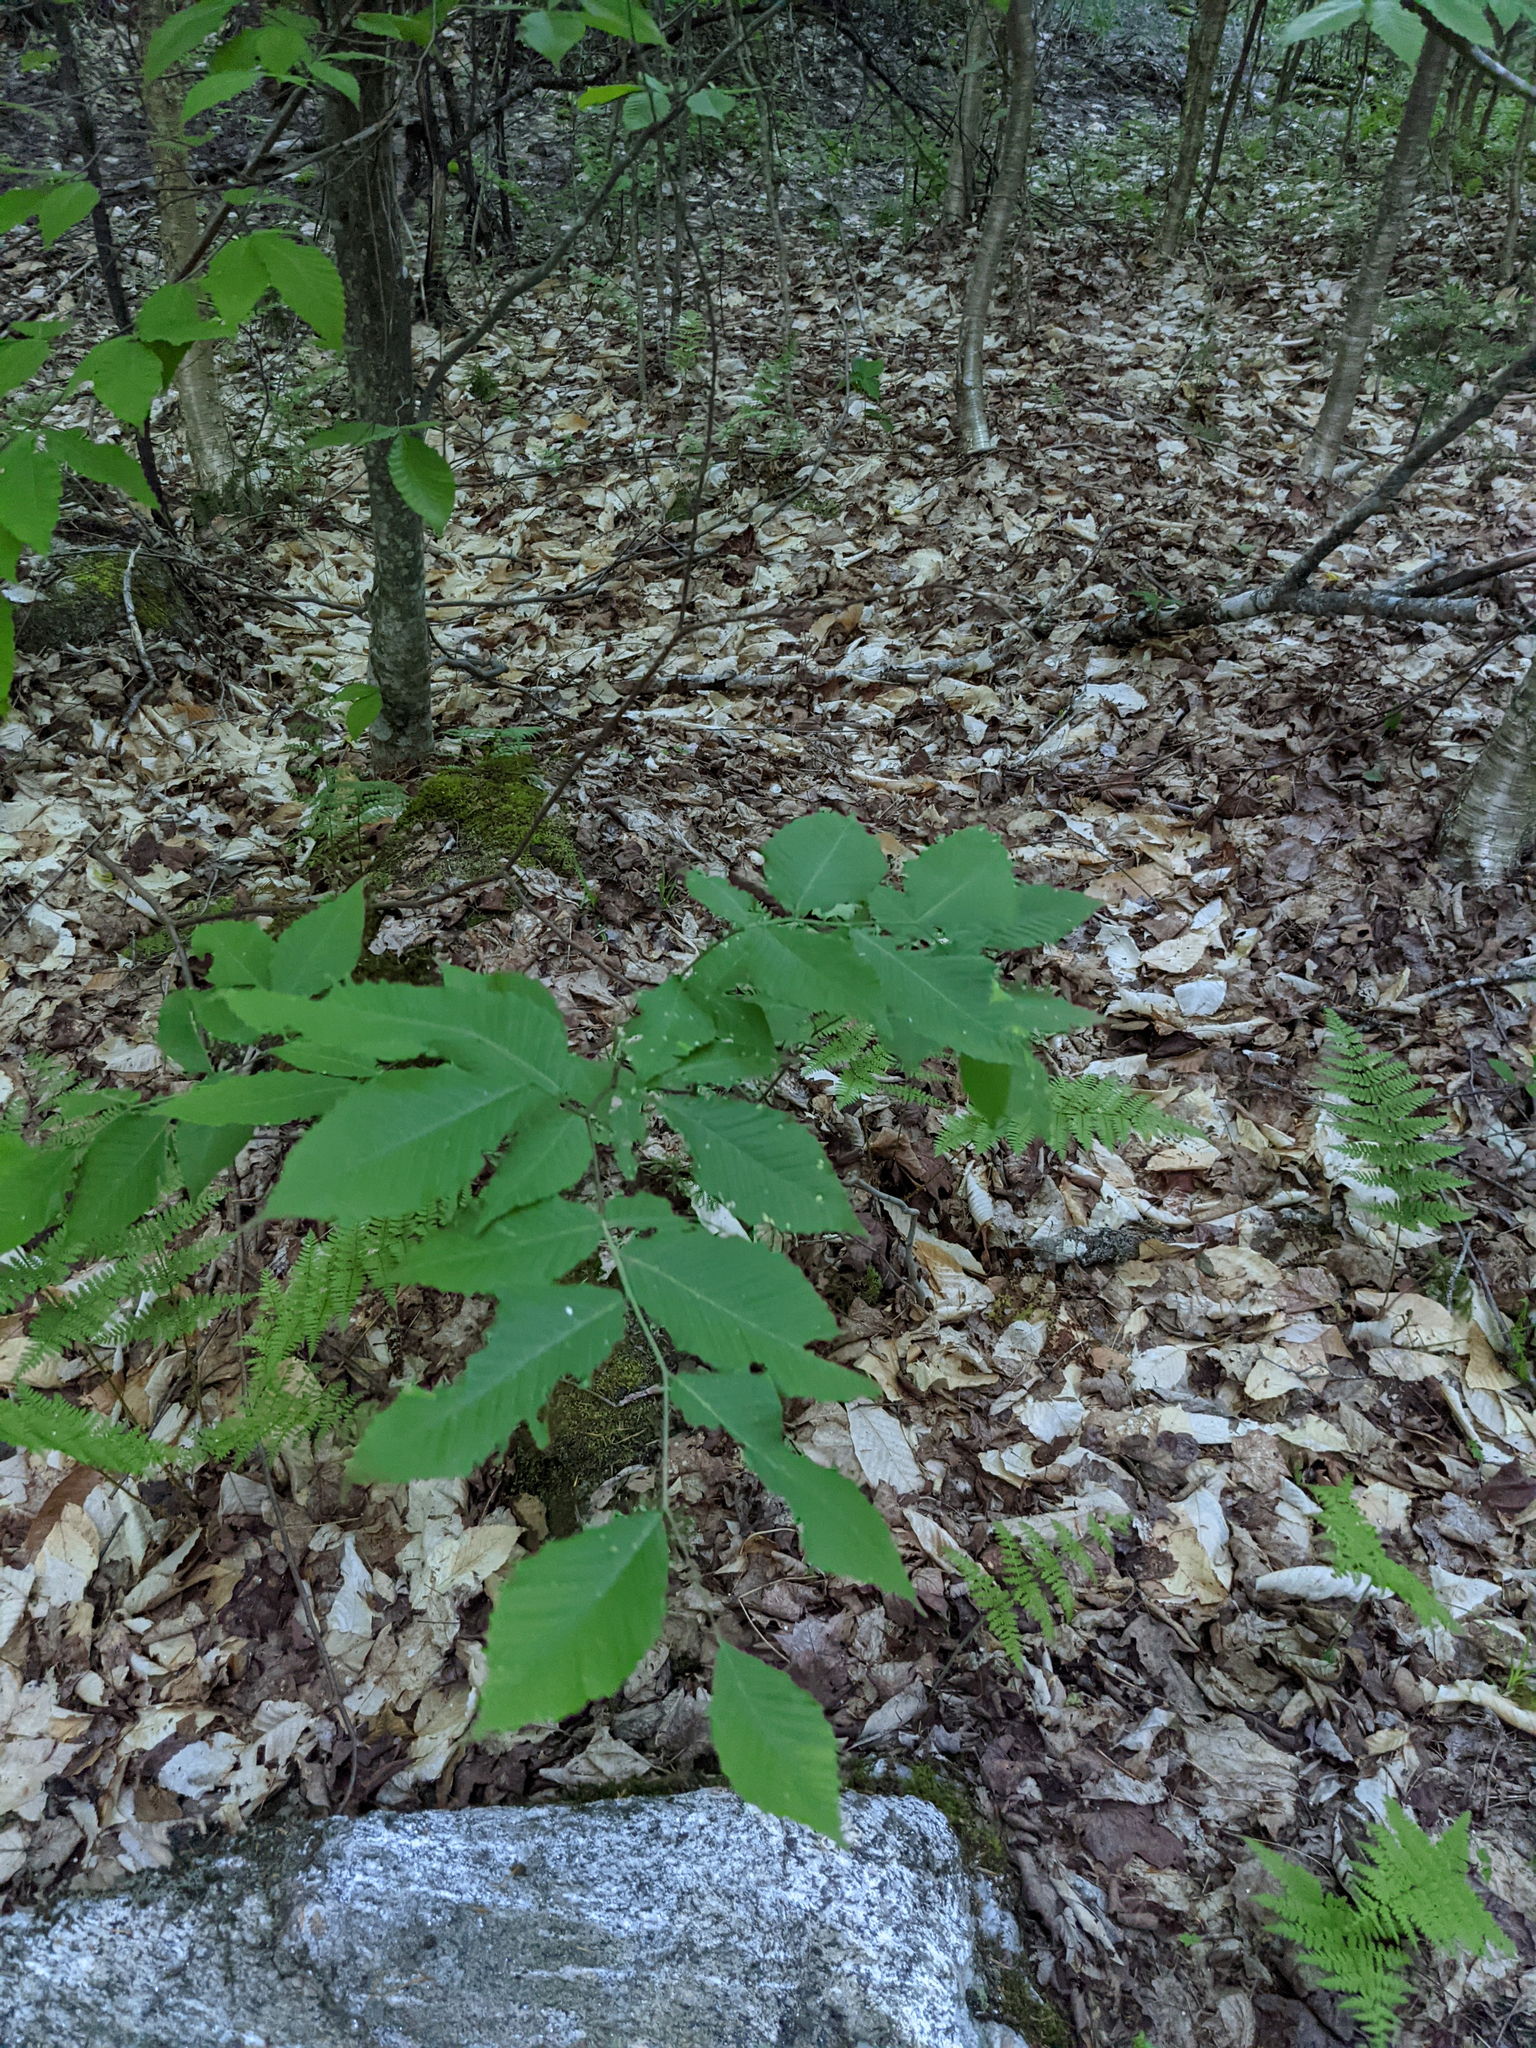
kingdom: Plantae
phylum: Tracheophyta
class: Magnoliopsida
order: Fagales
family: Fagaceae
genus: Fagus
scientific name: Fagus grandifolia
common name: American beech
